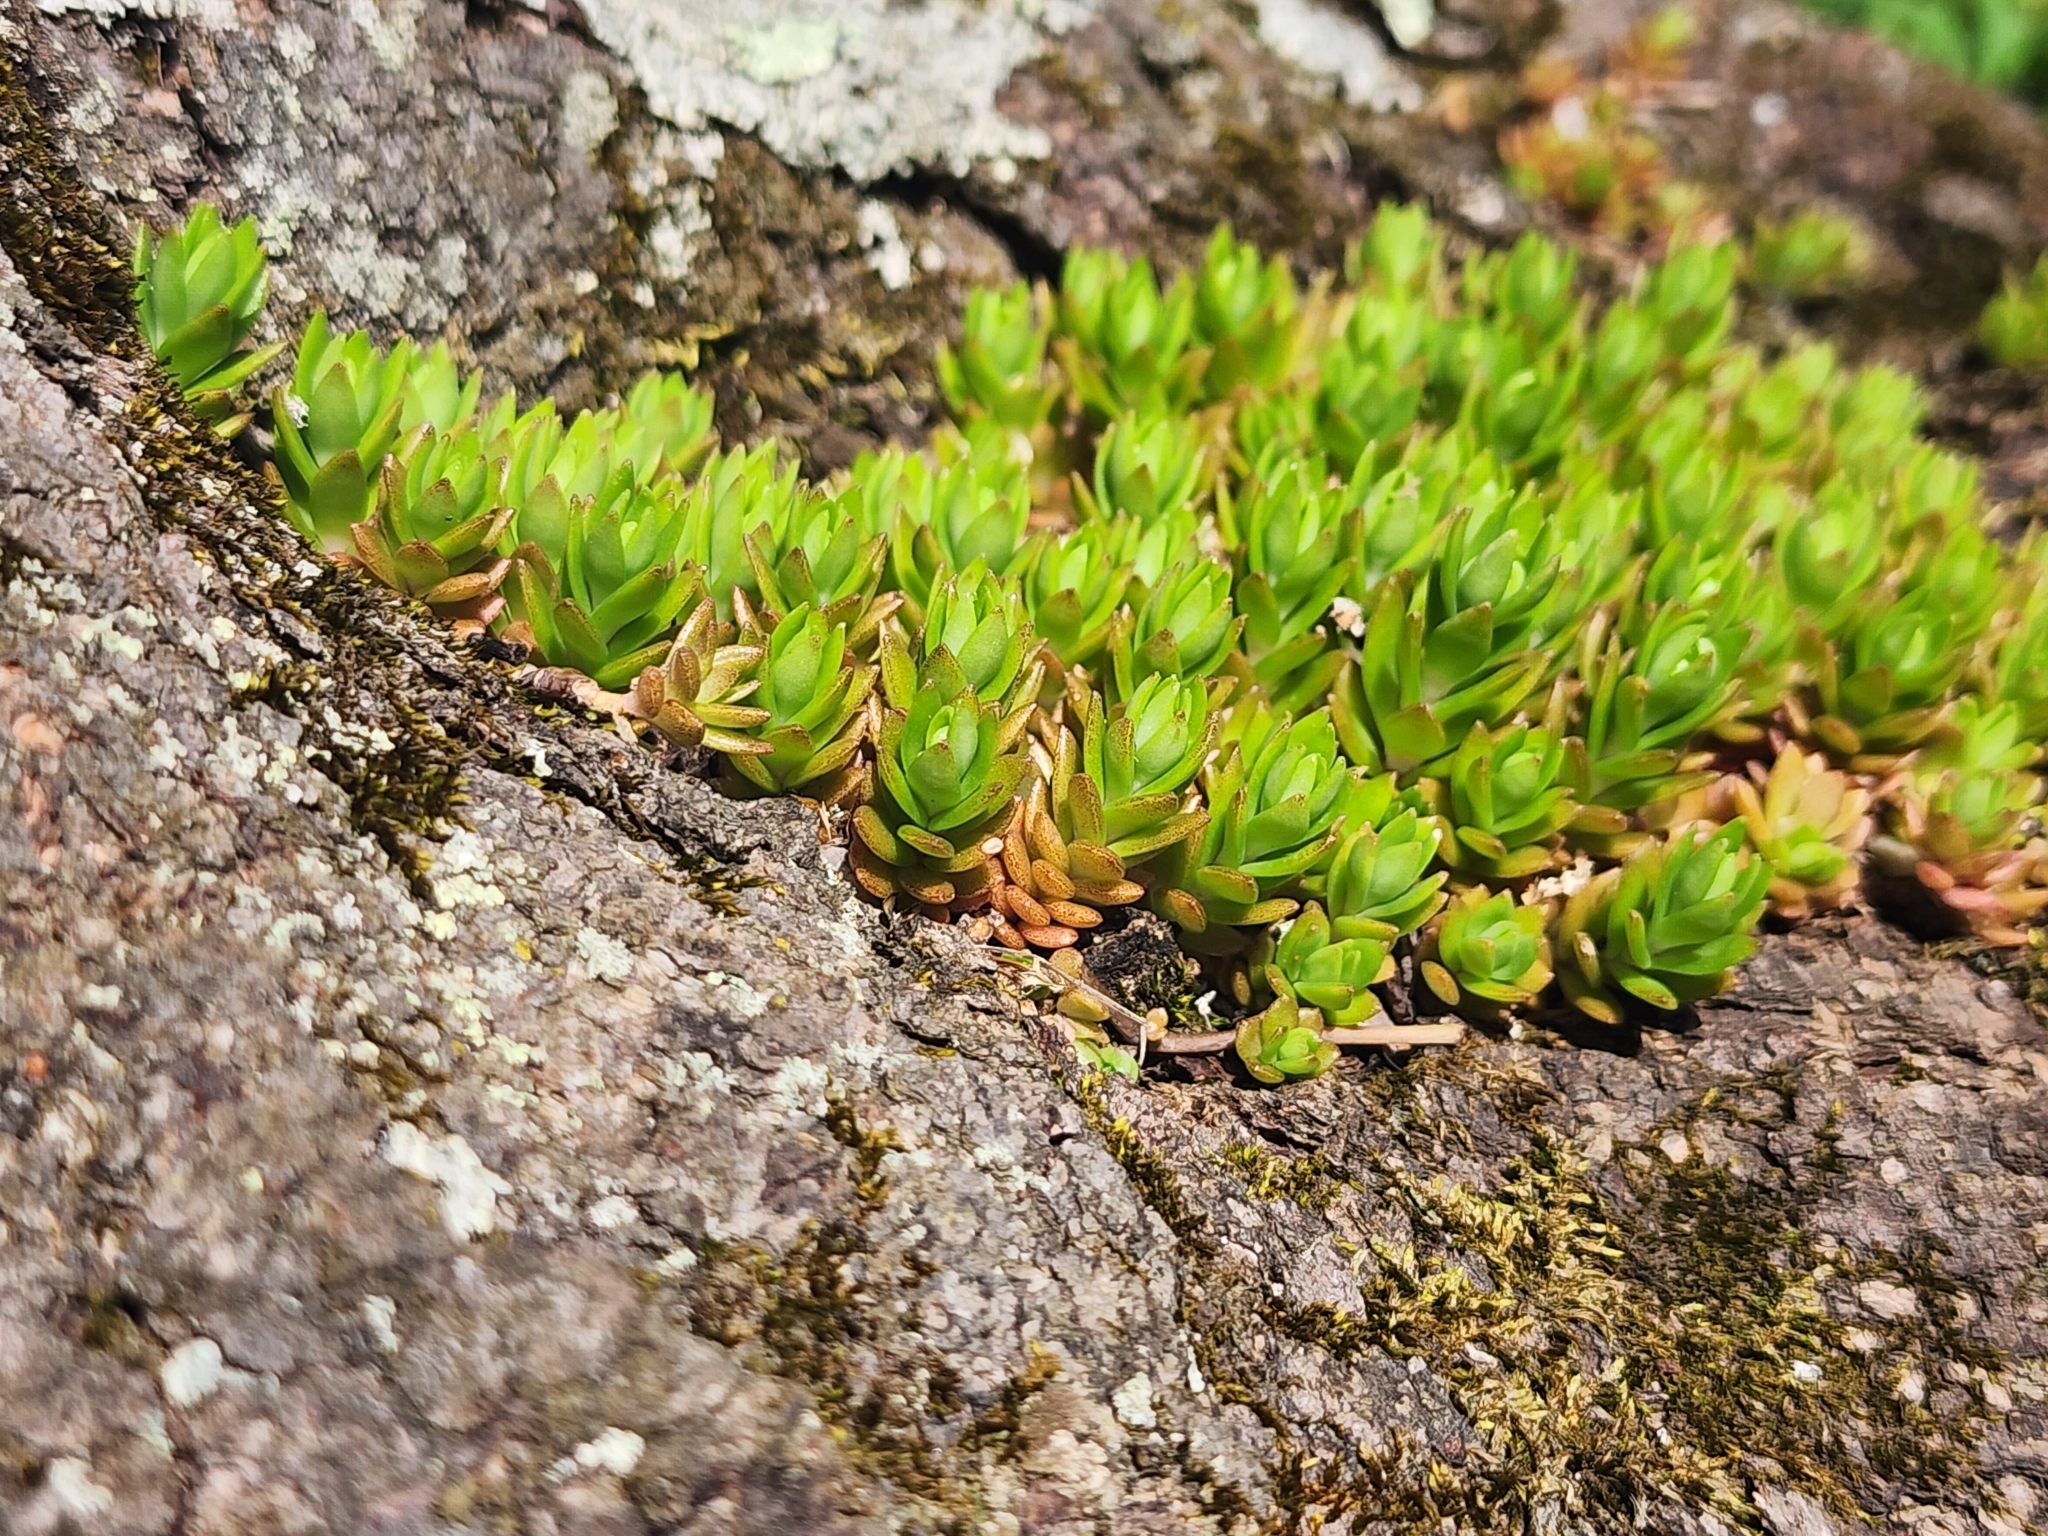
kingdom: Plantae
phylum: Tracheophyta
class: Magnoliopsida
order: Saxifragales
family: Crassulaceae
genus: Sedum
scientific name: Sedum sarmentosum
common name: Stringy stonecrop
